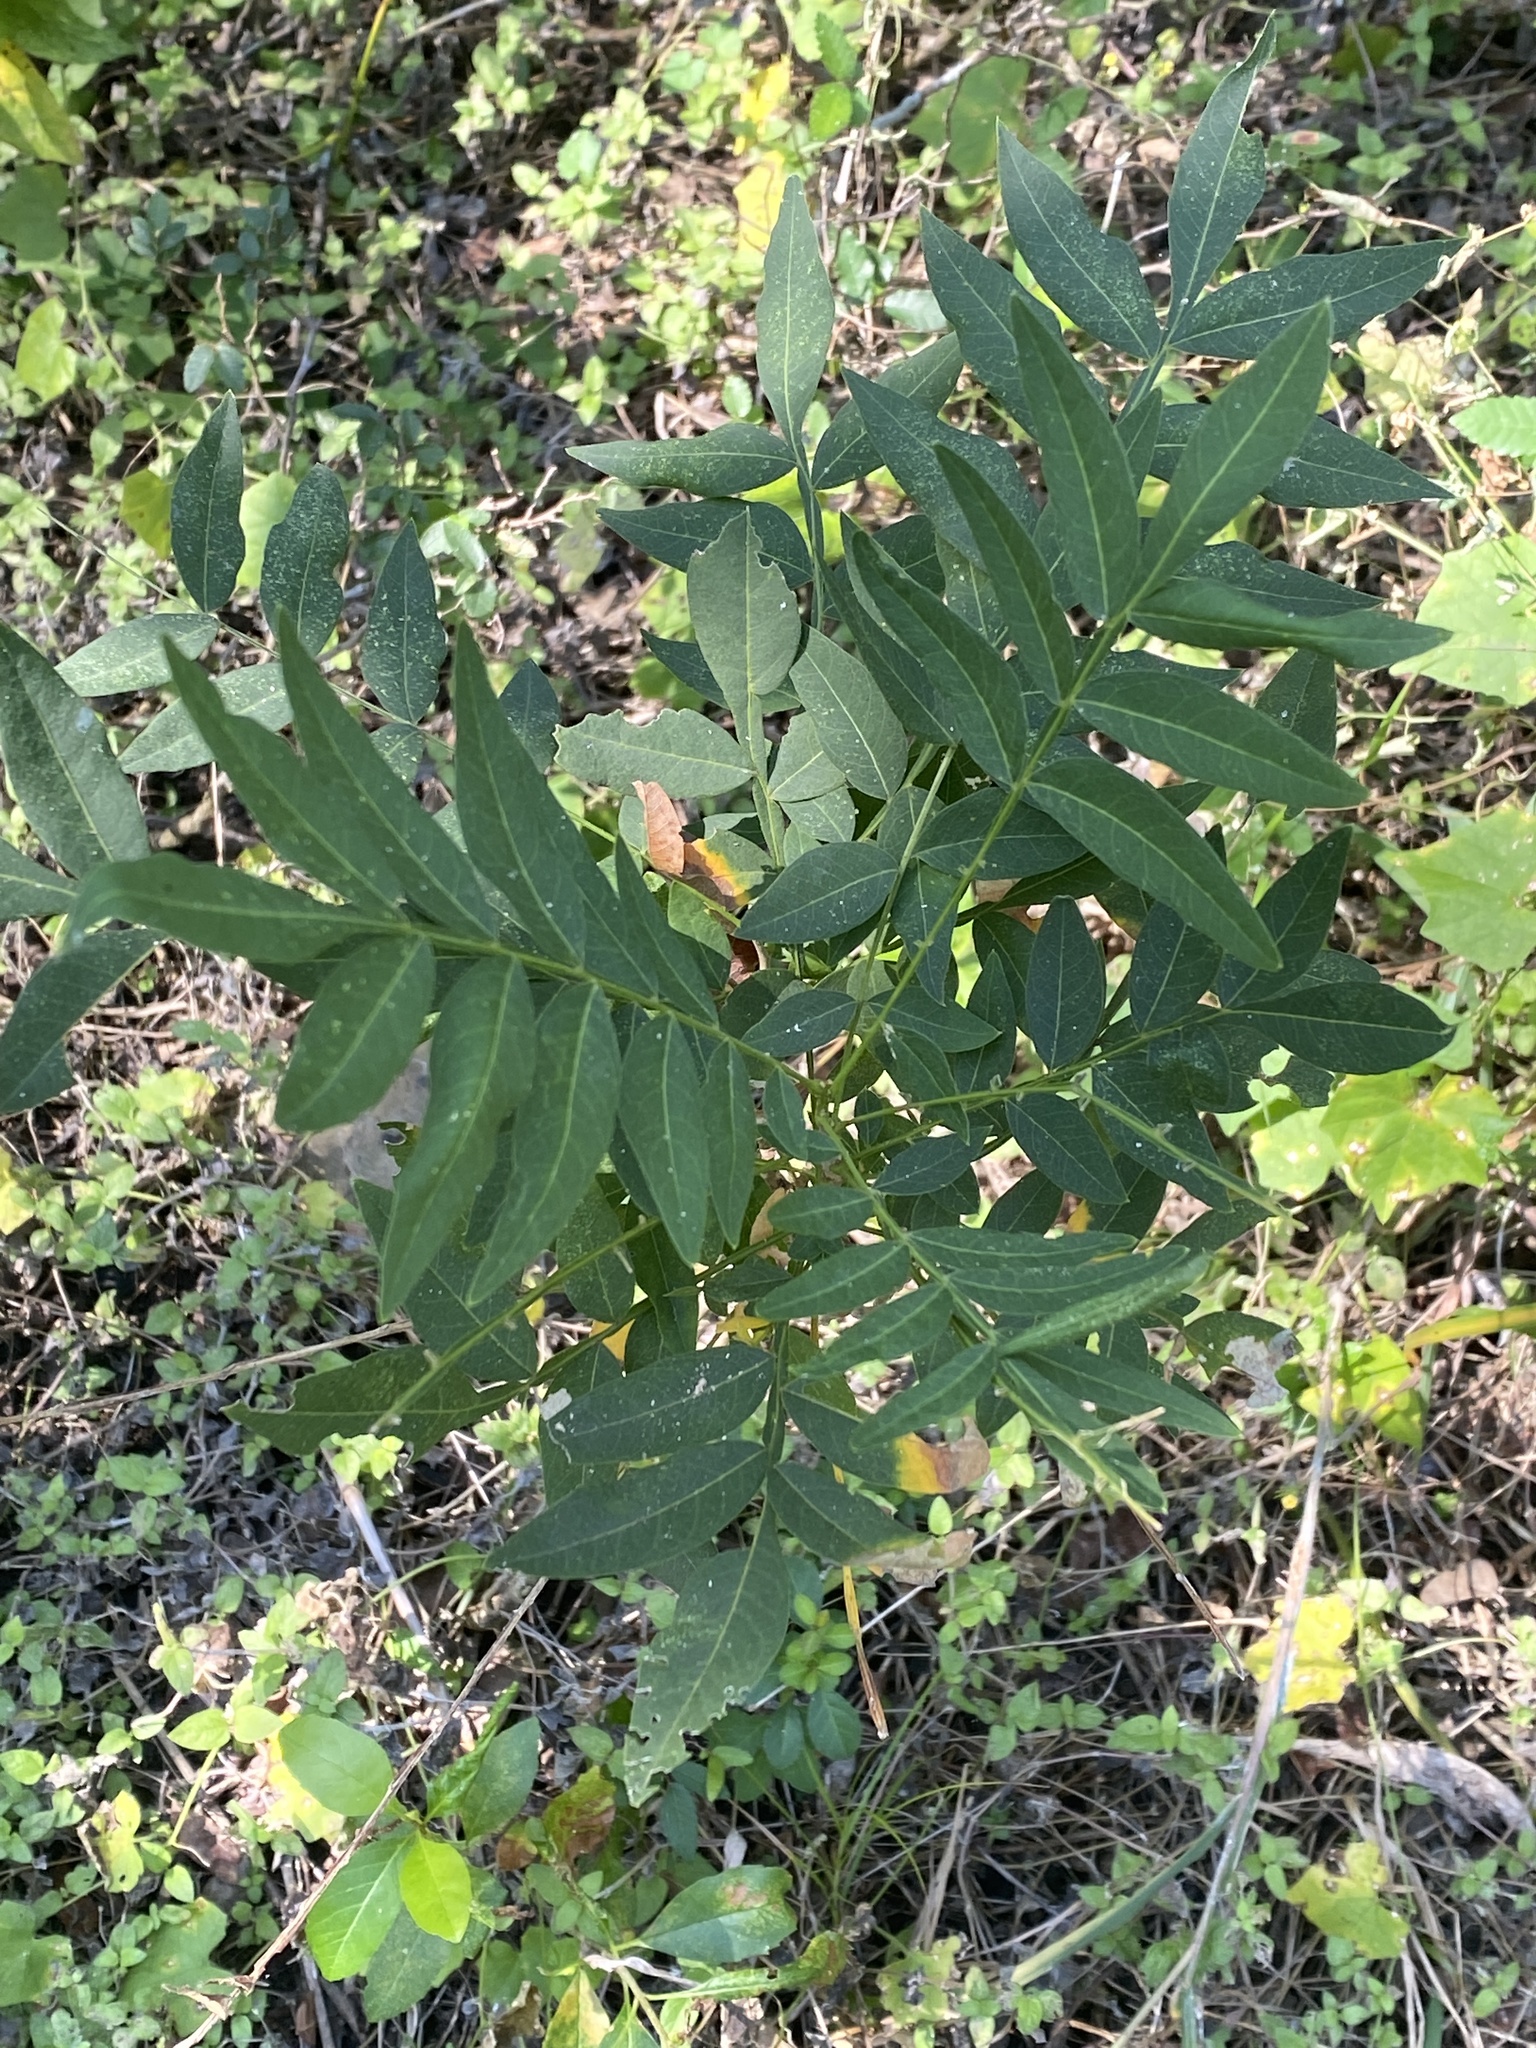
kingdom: Plantae
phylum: Tracheophyta
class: Magnoliopsida
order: Sapindales
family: Sapindaceae
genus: Sapindus
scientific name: Sapindus drummondii
